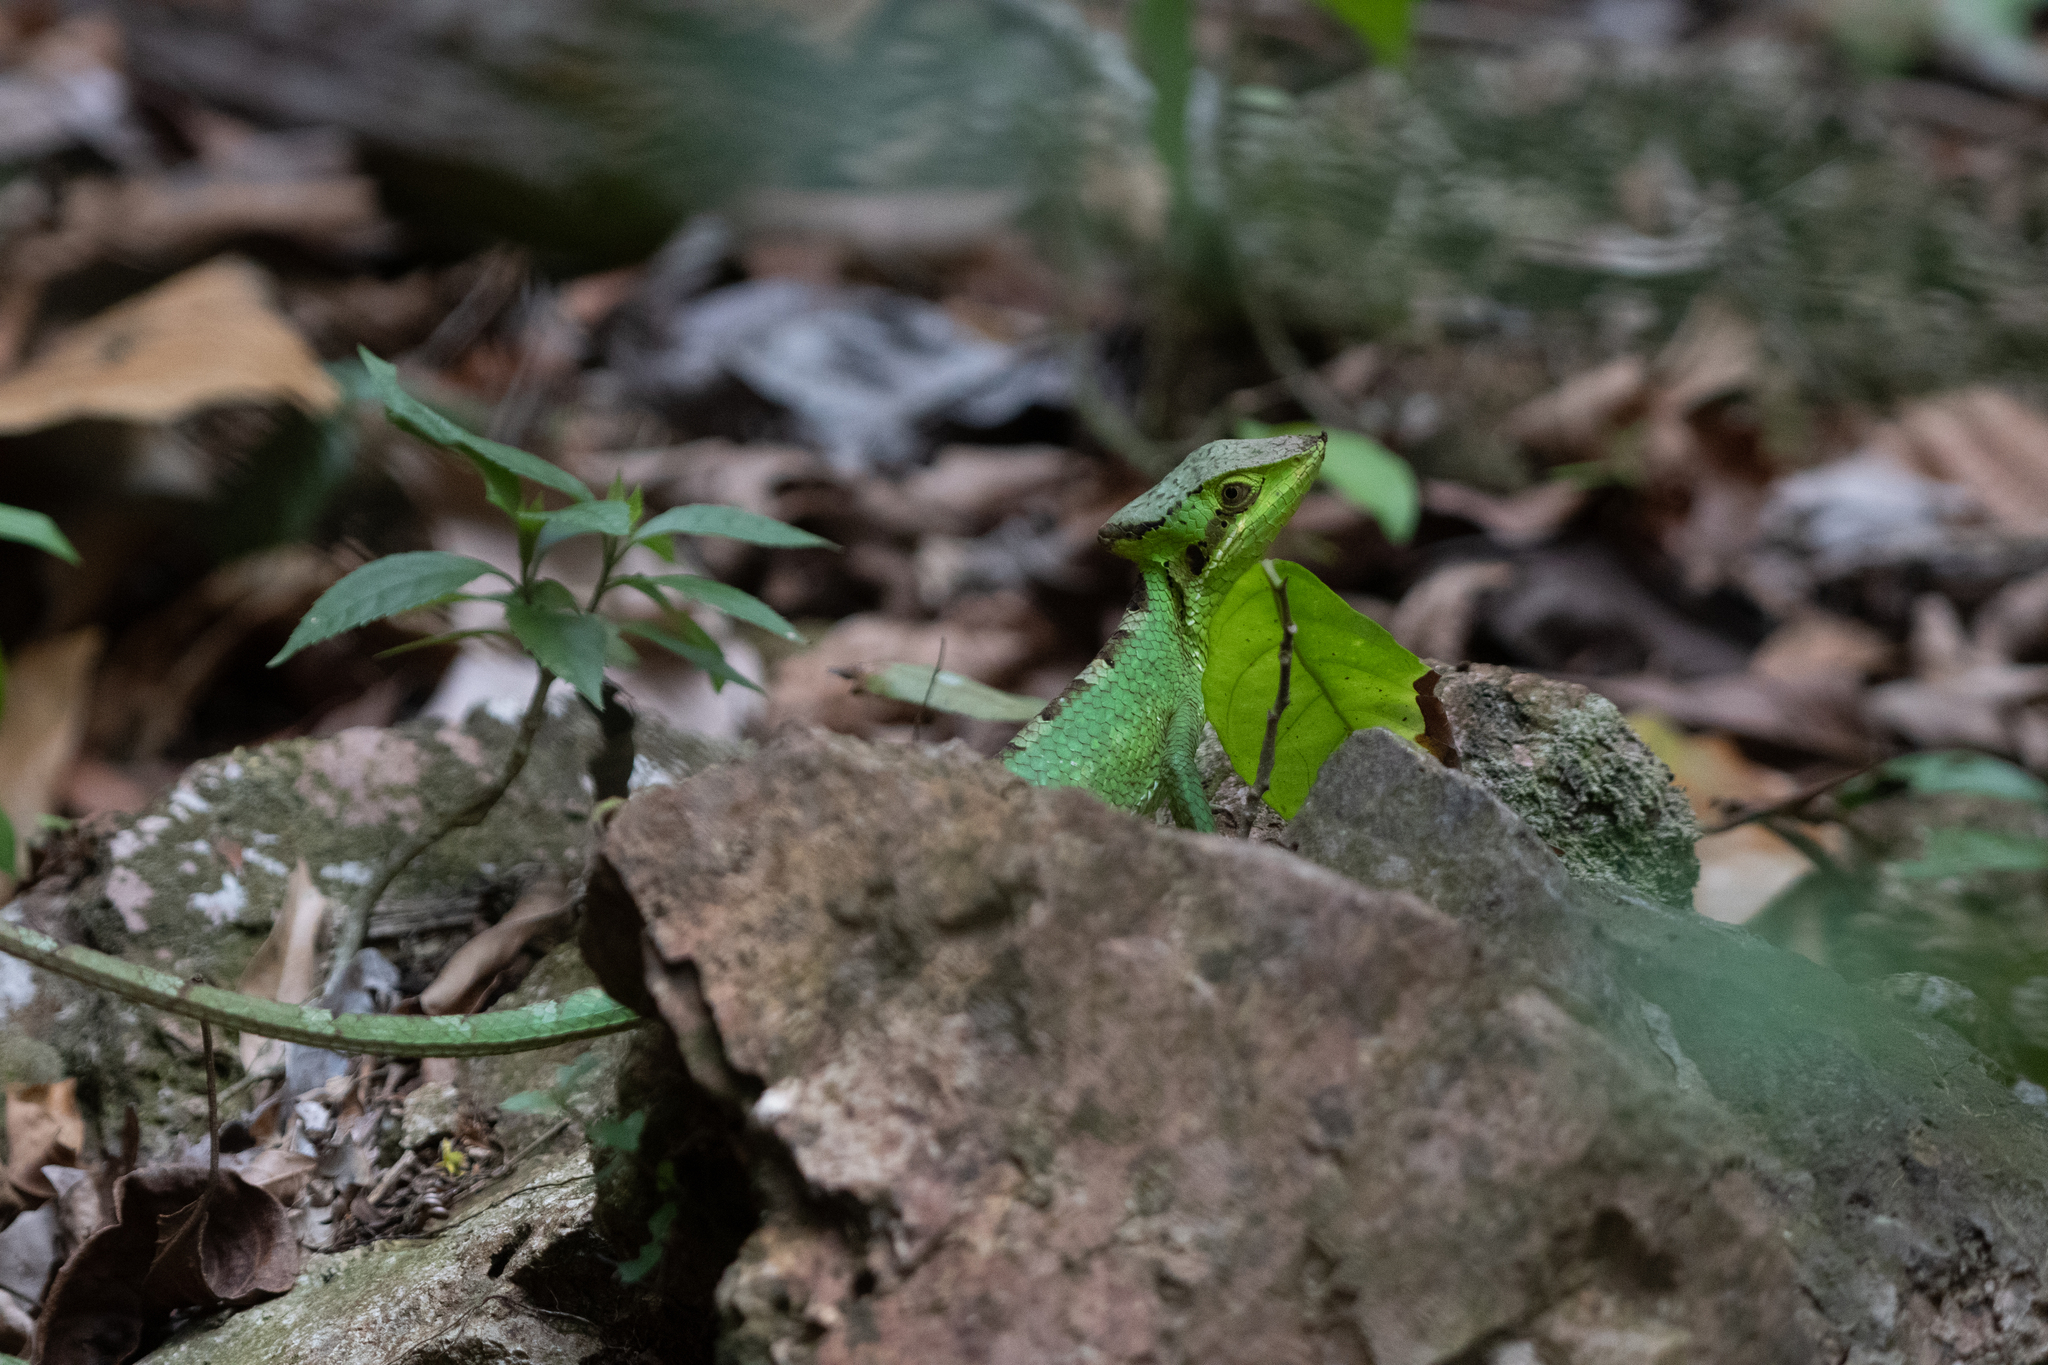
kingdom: Animalia
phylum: Chordata
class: Squamata
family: Corytophanidae
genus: Laemanctus
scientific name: Laemanctus waltersi
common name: Walters’ casquehead iguana
